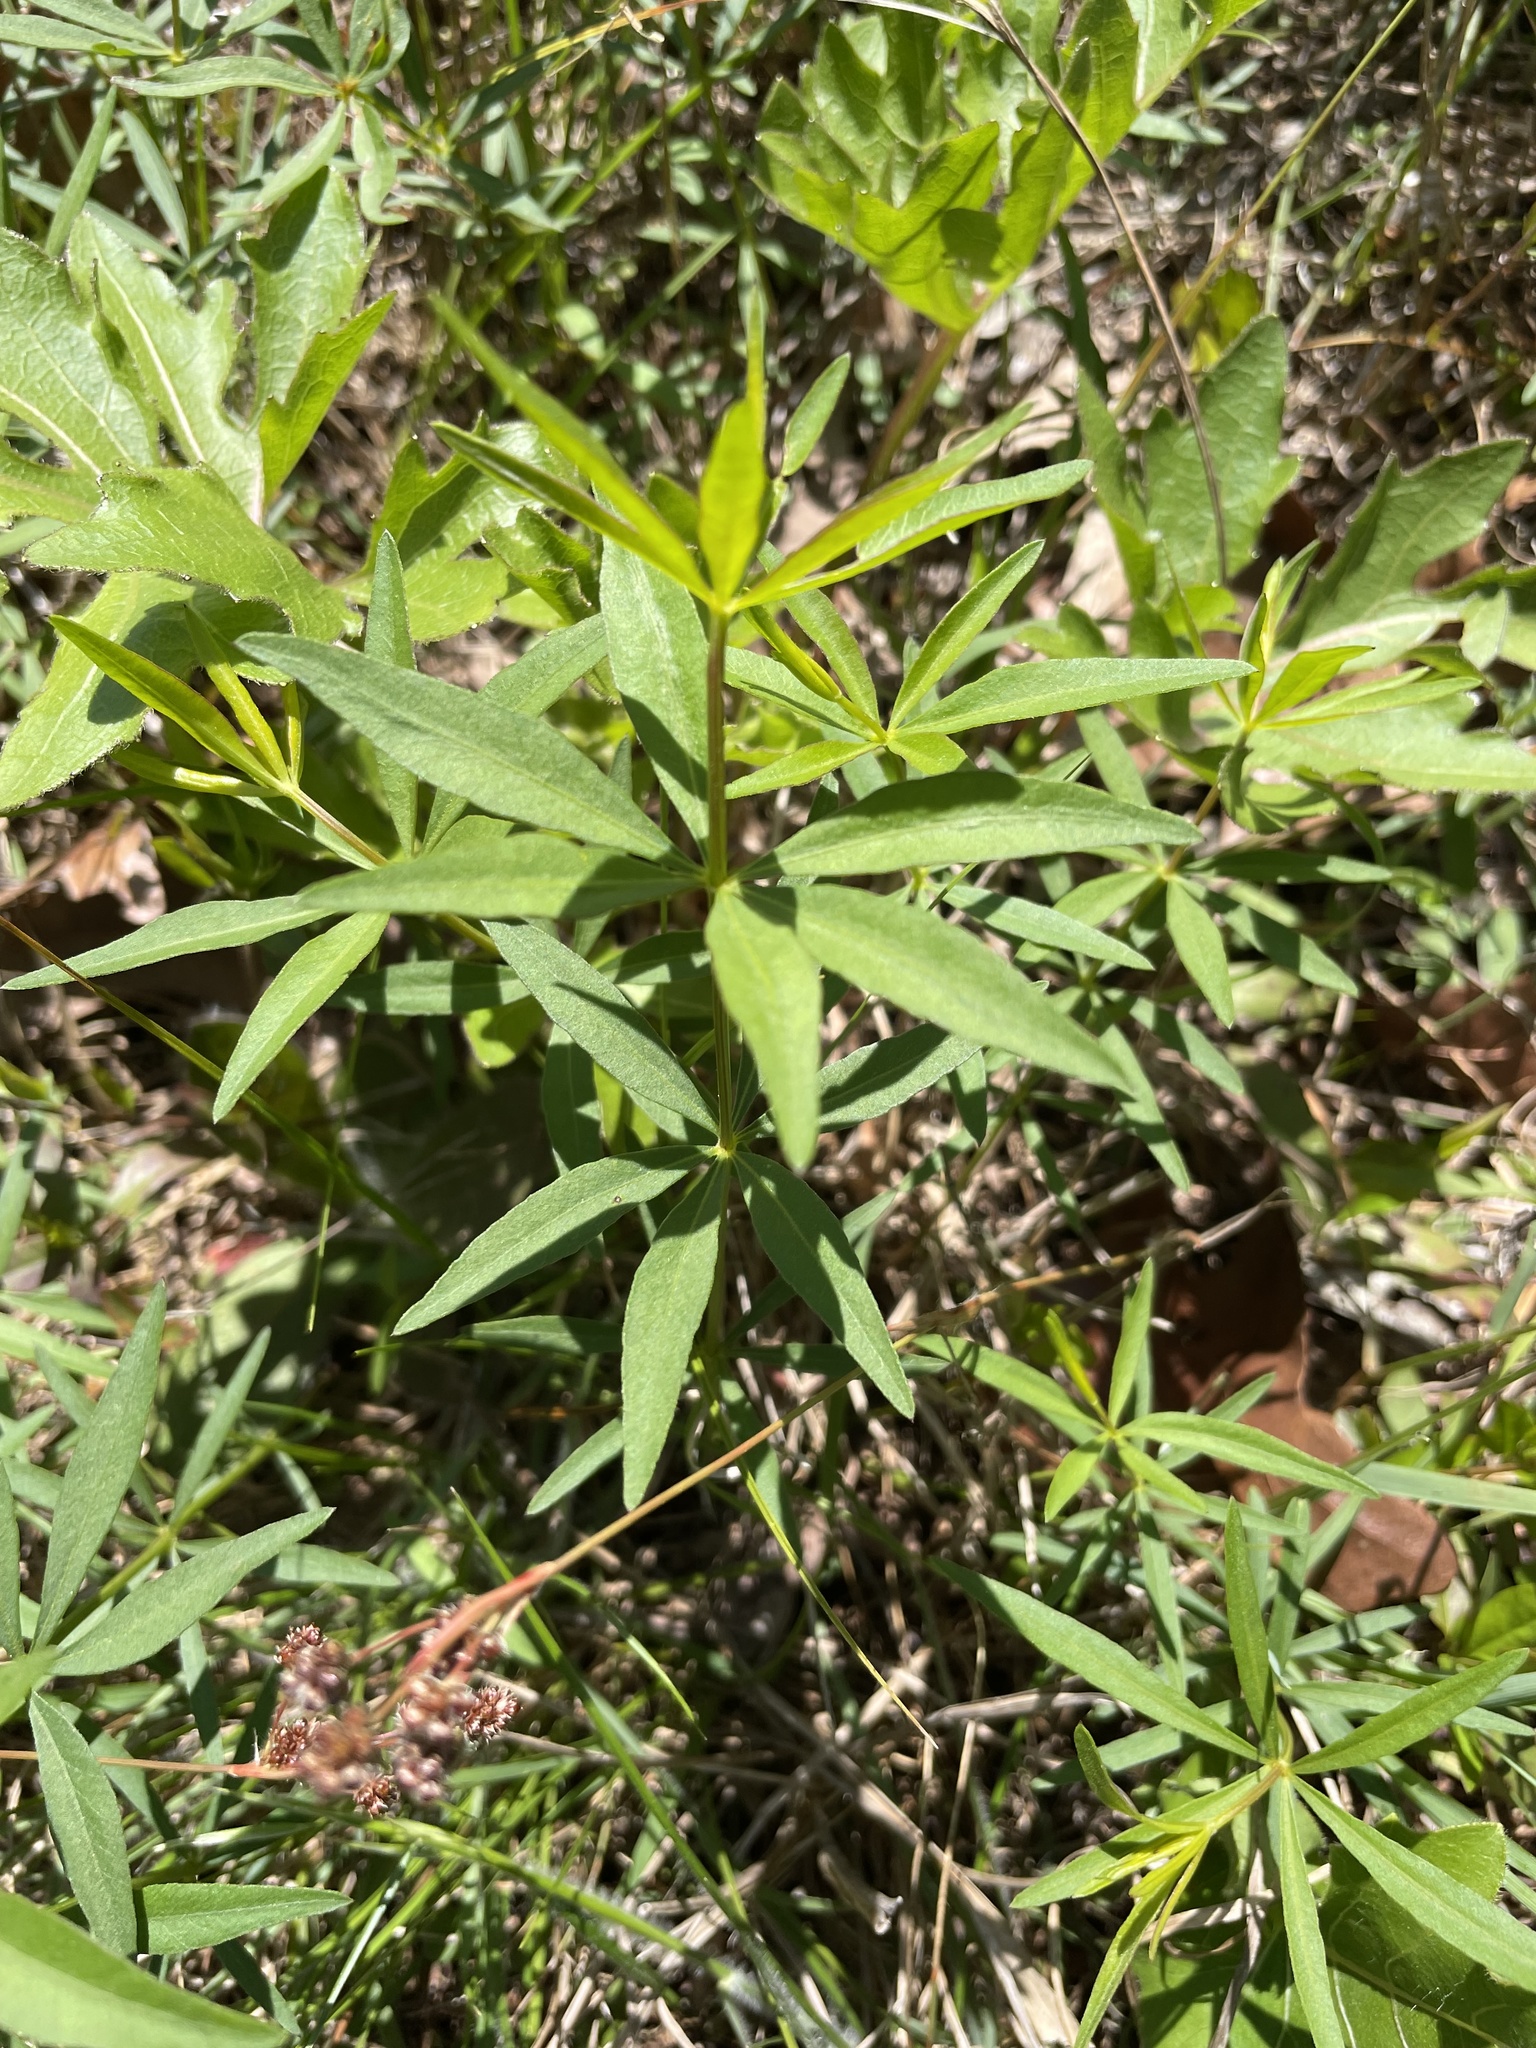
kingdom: Plantae
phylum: Tracheophyta
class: Magnoliopsida
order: Asterales
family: Asteraceae
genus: Coreopsis
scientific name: Coreopsis major
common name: Forest tickseed
